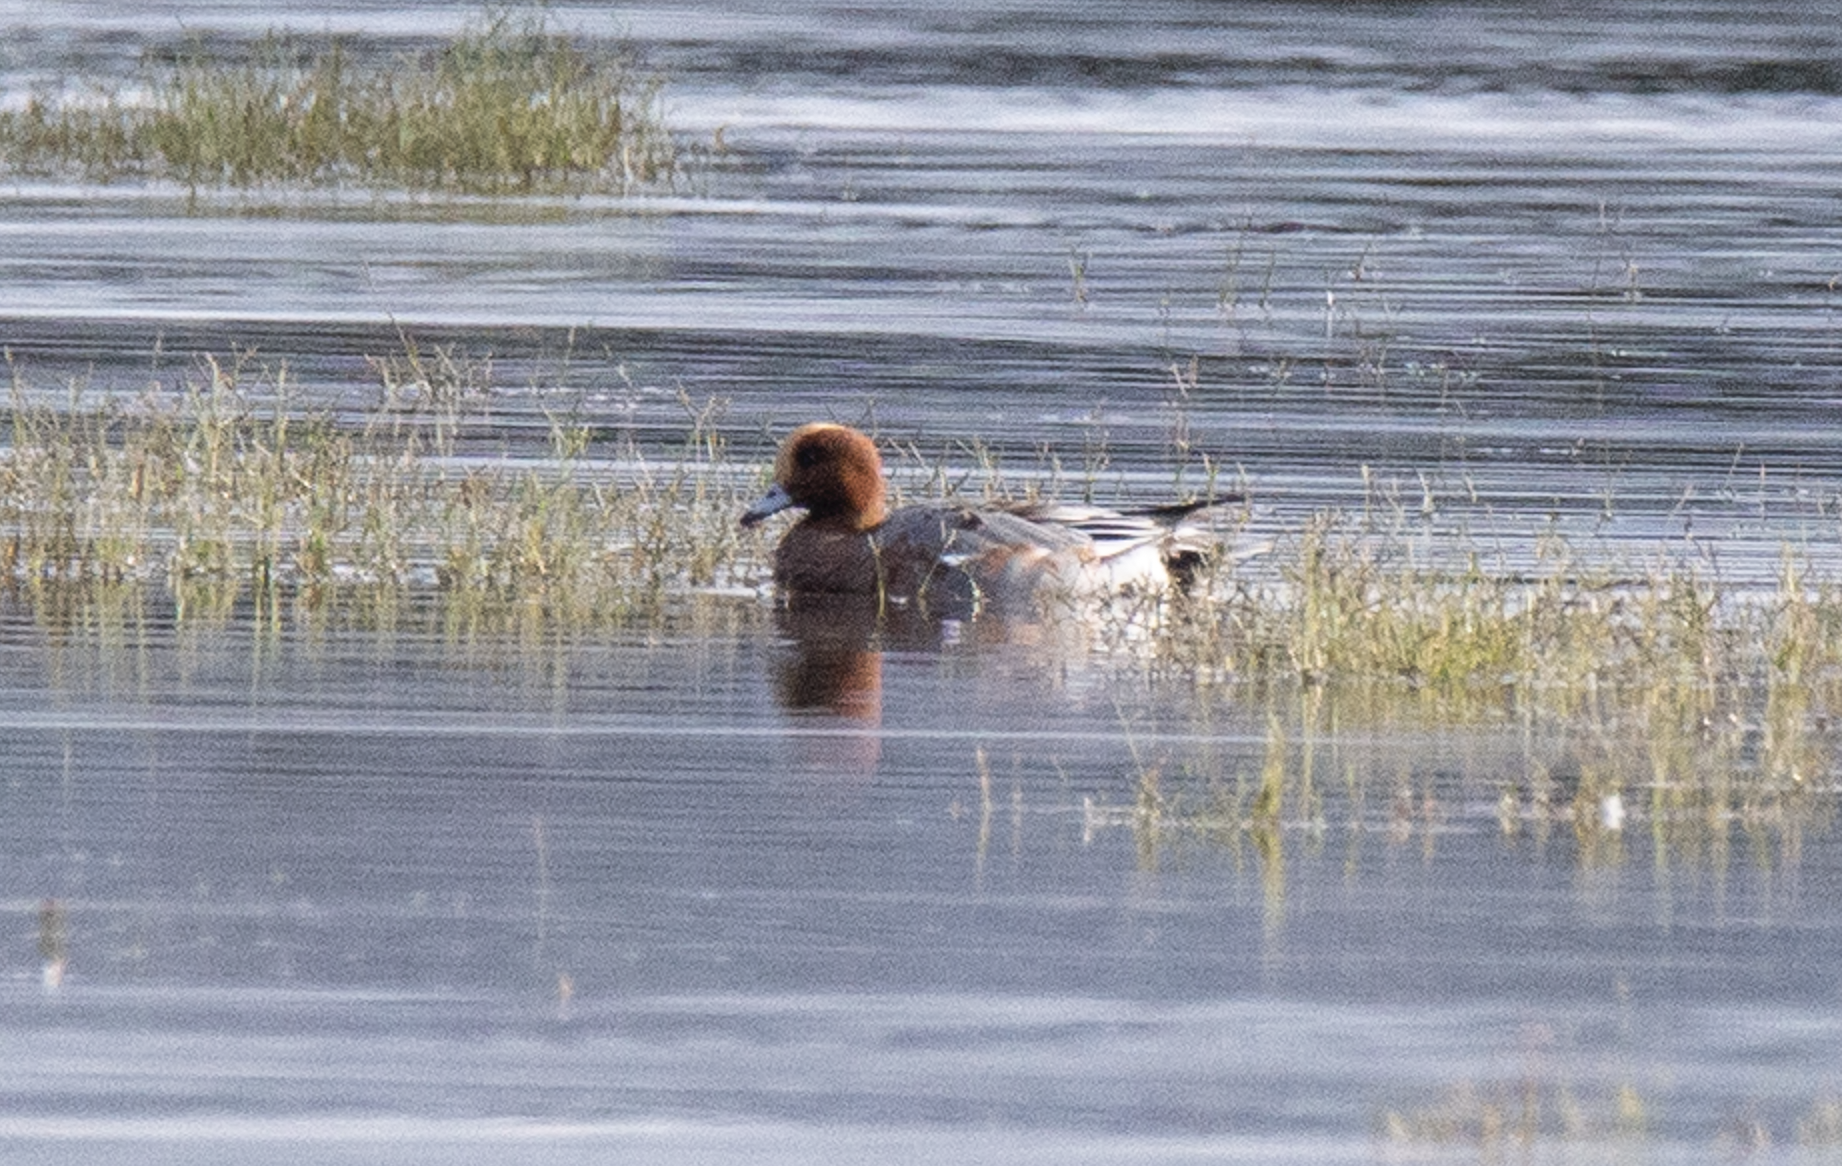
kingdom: Animalia
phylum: Chordata
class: Aves
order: Anseriformes
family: Anatidae
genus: Mareca
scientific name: Mareca penelope
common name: Eurasian wigeon
